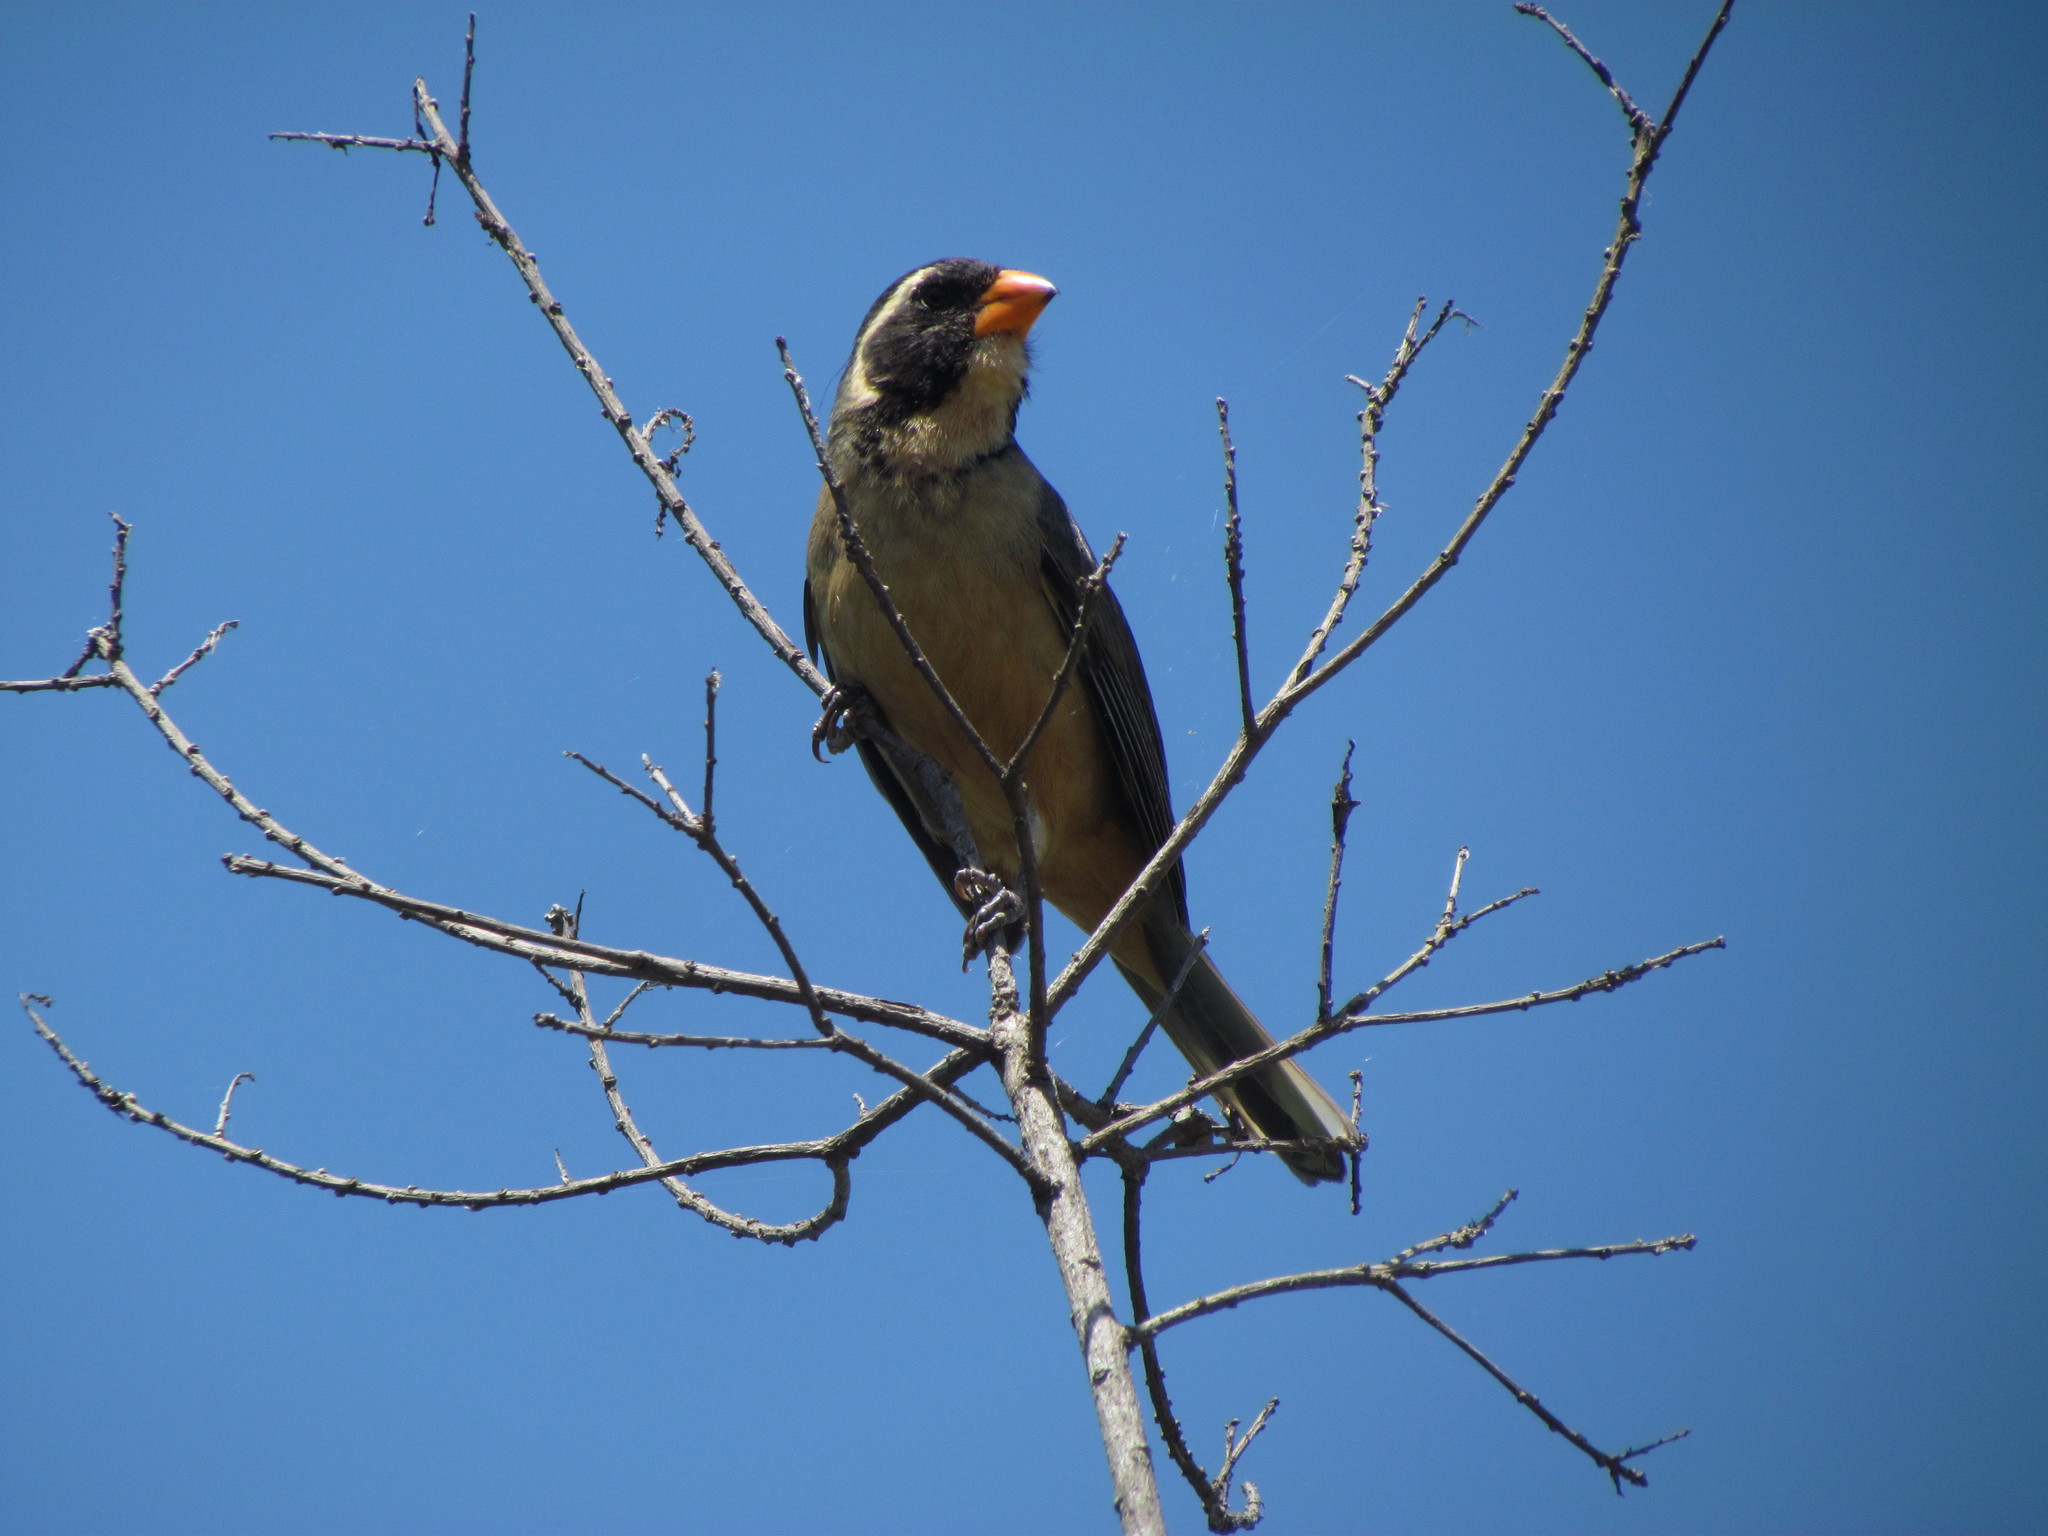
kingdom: Animalia
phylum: Chordata
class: Aves
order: Passeriformes
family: Thraupidae
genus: Saltator
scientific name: Saltator aurantiirostris
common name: Golden-billed saltator
